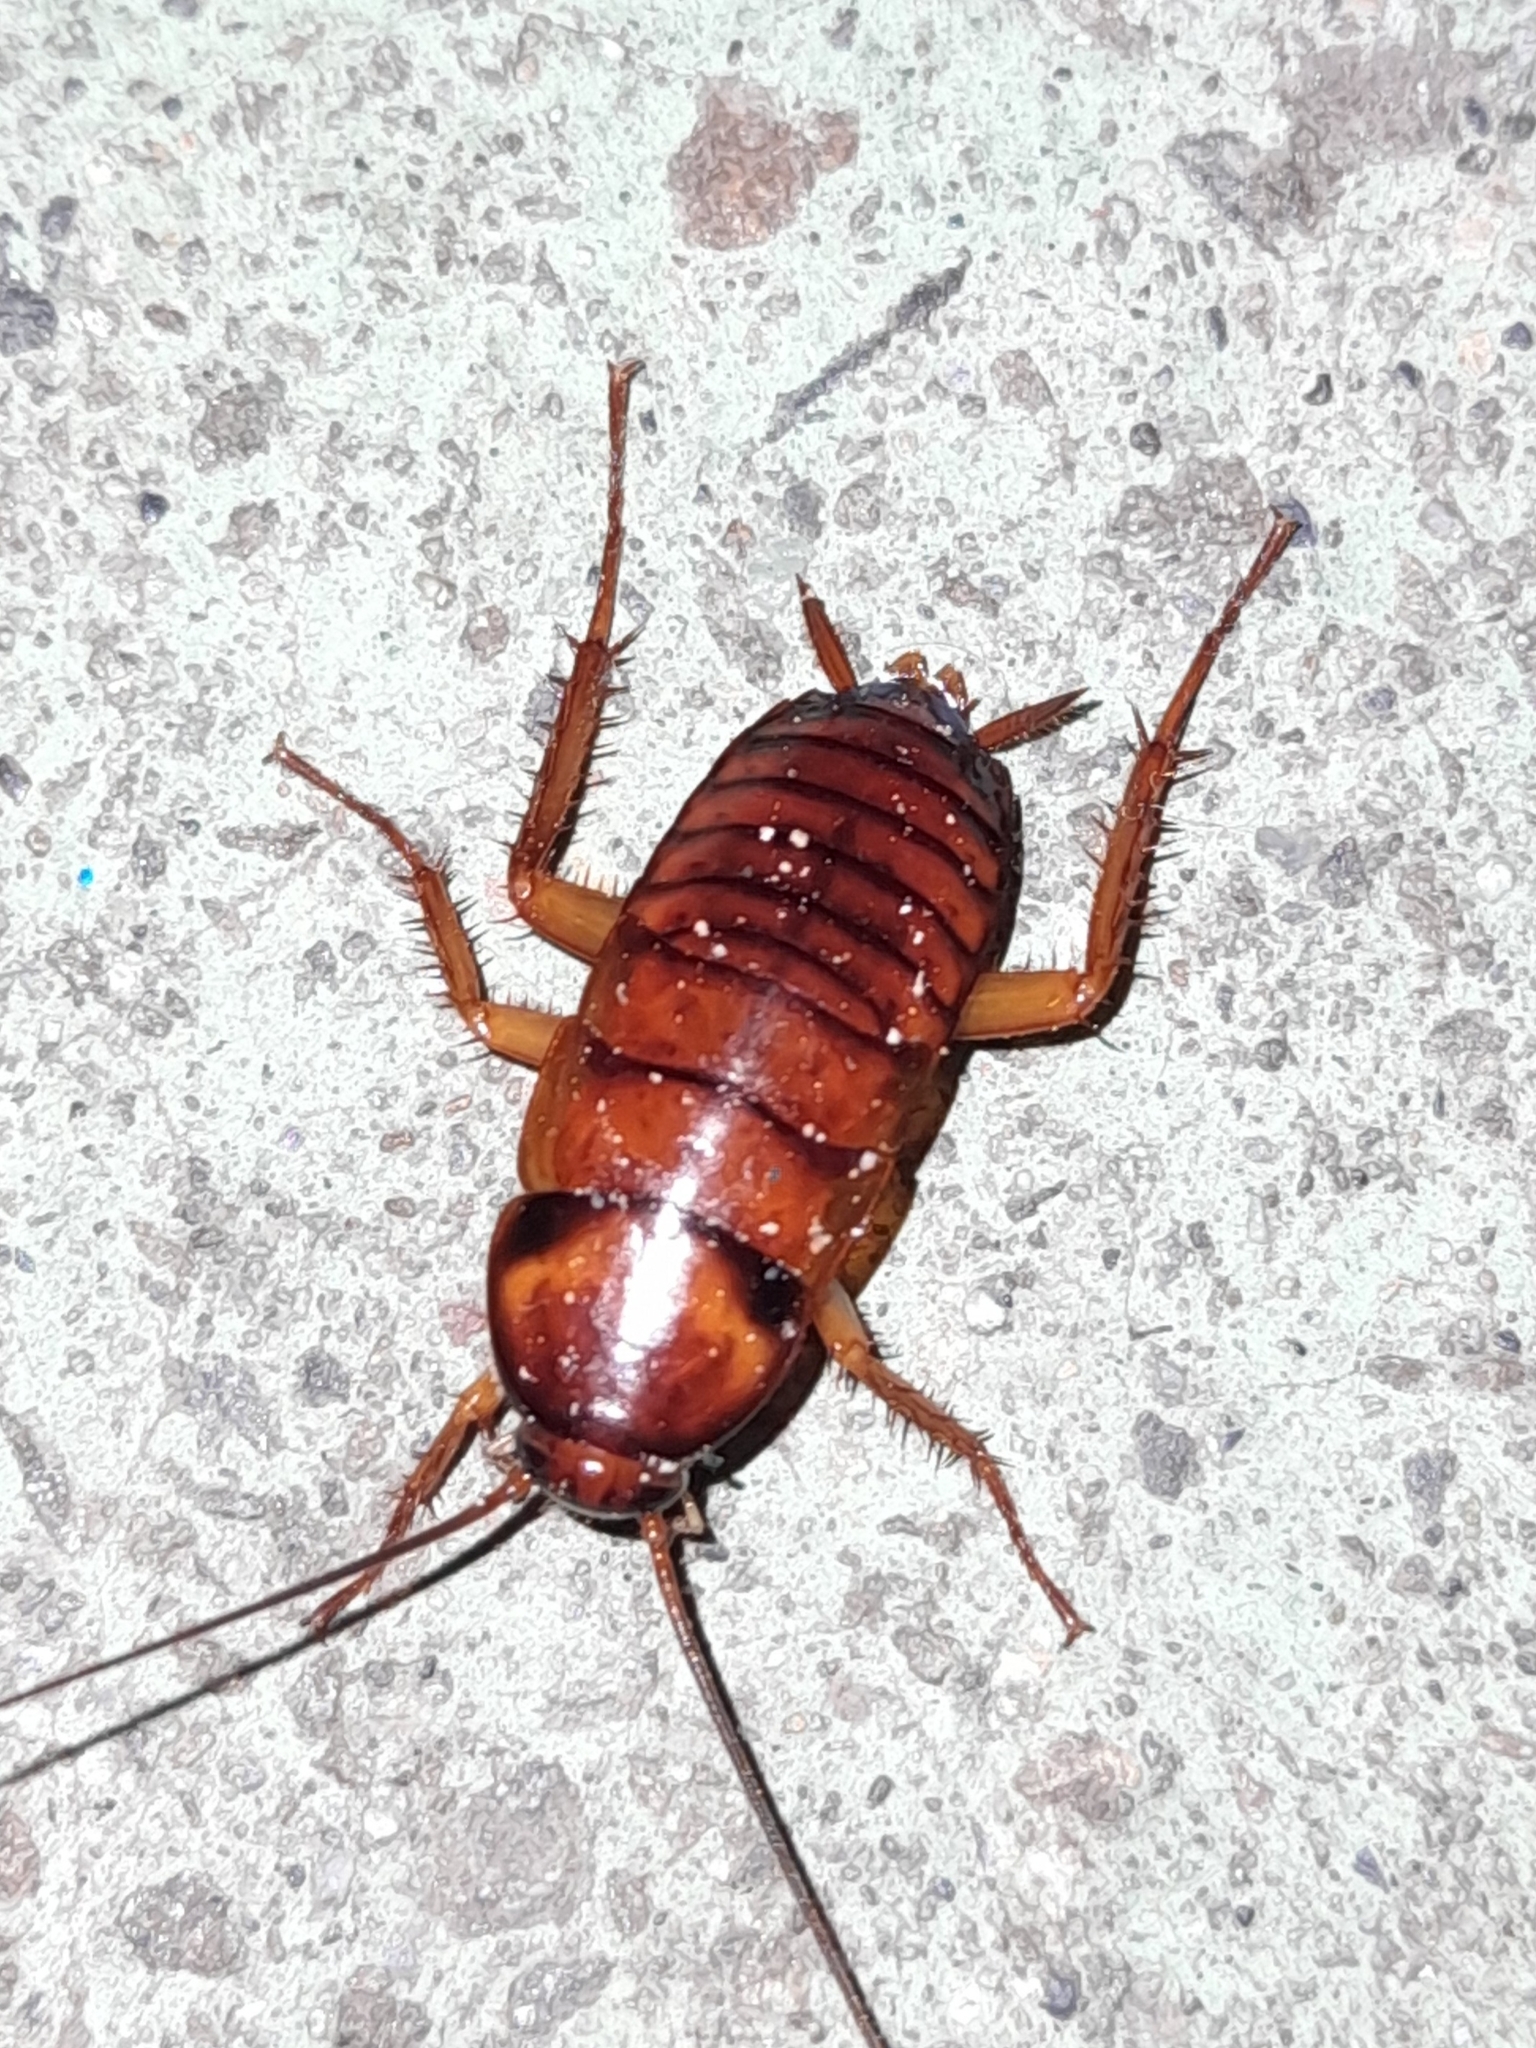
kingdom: Animalia
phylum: Arthropoda
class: Insecta
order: Blattodea
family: Blattidae
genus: Periplaneta
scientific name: Periplaneta americana
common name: American cockroach
